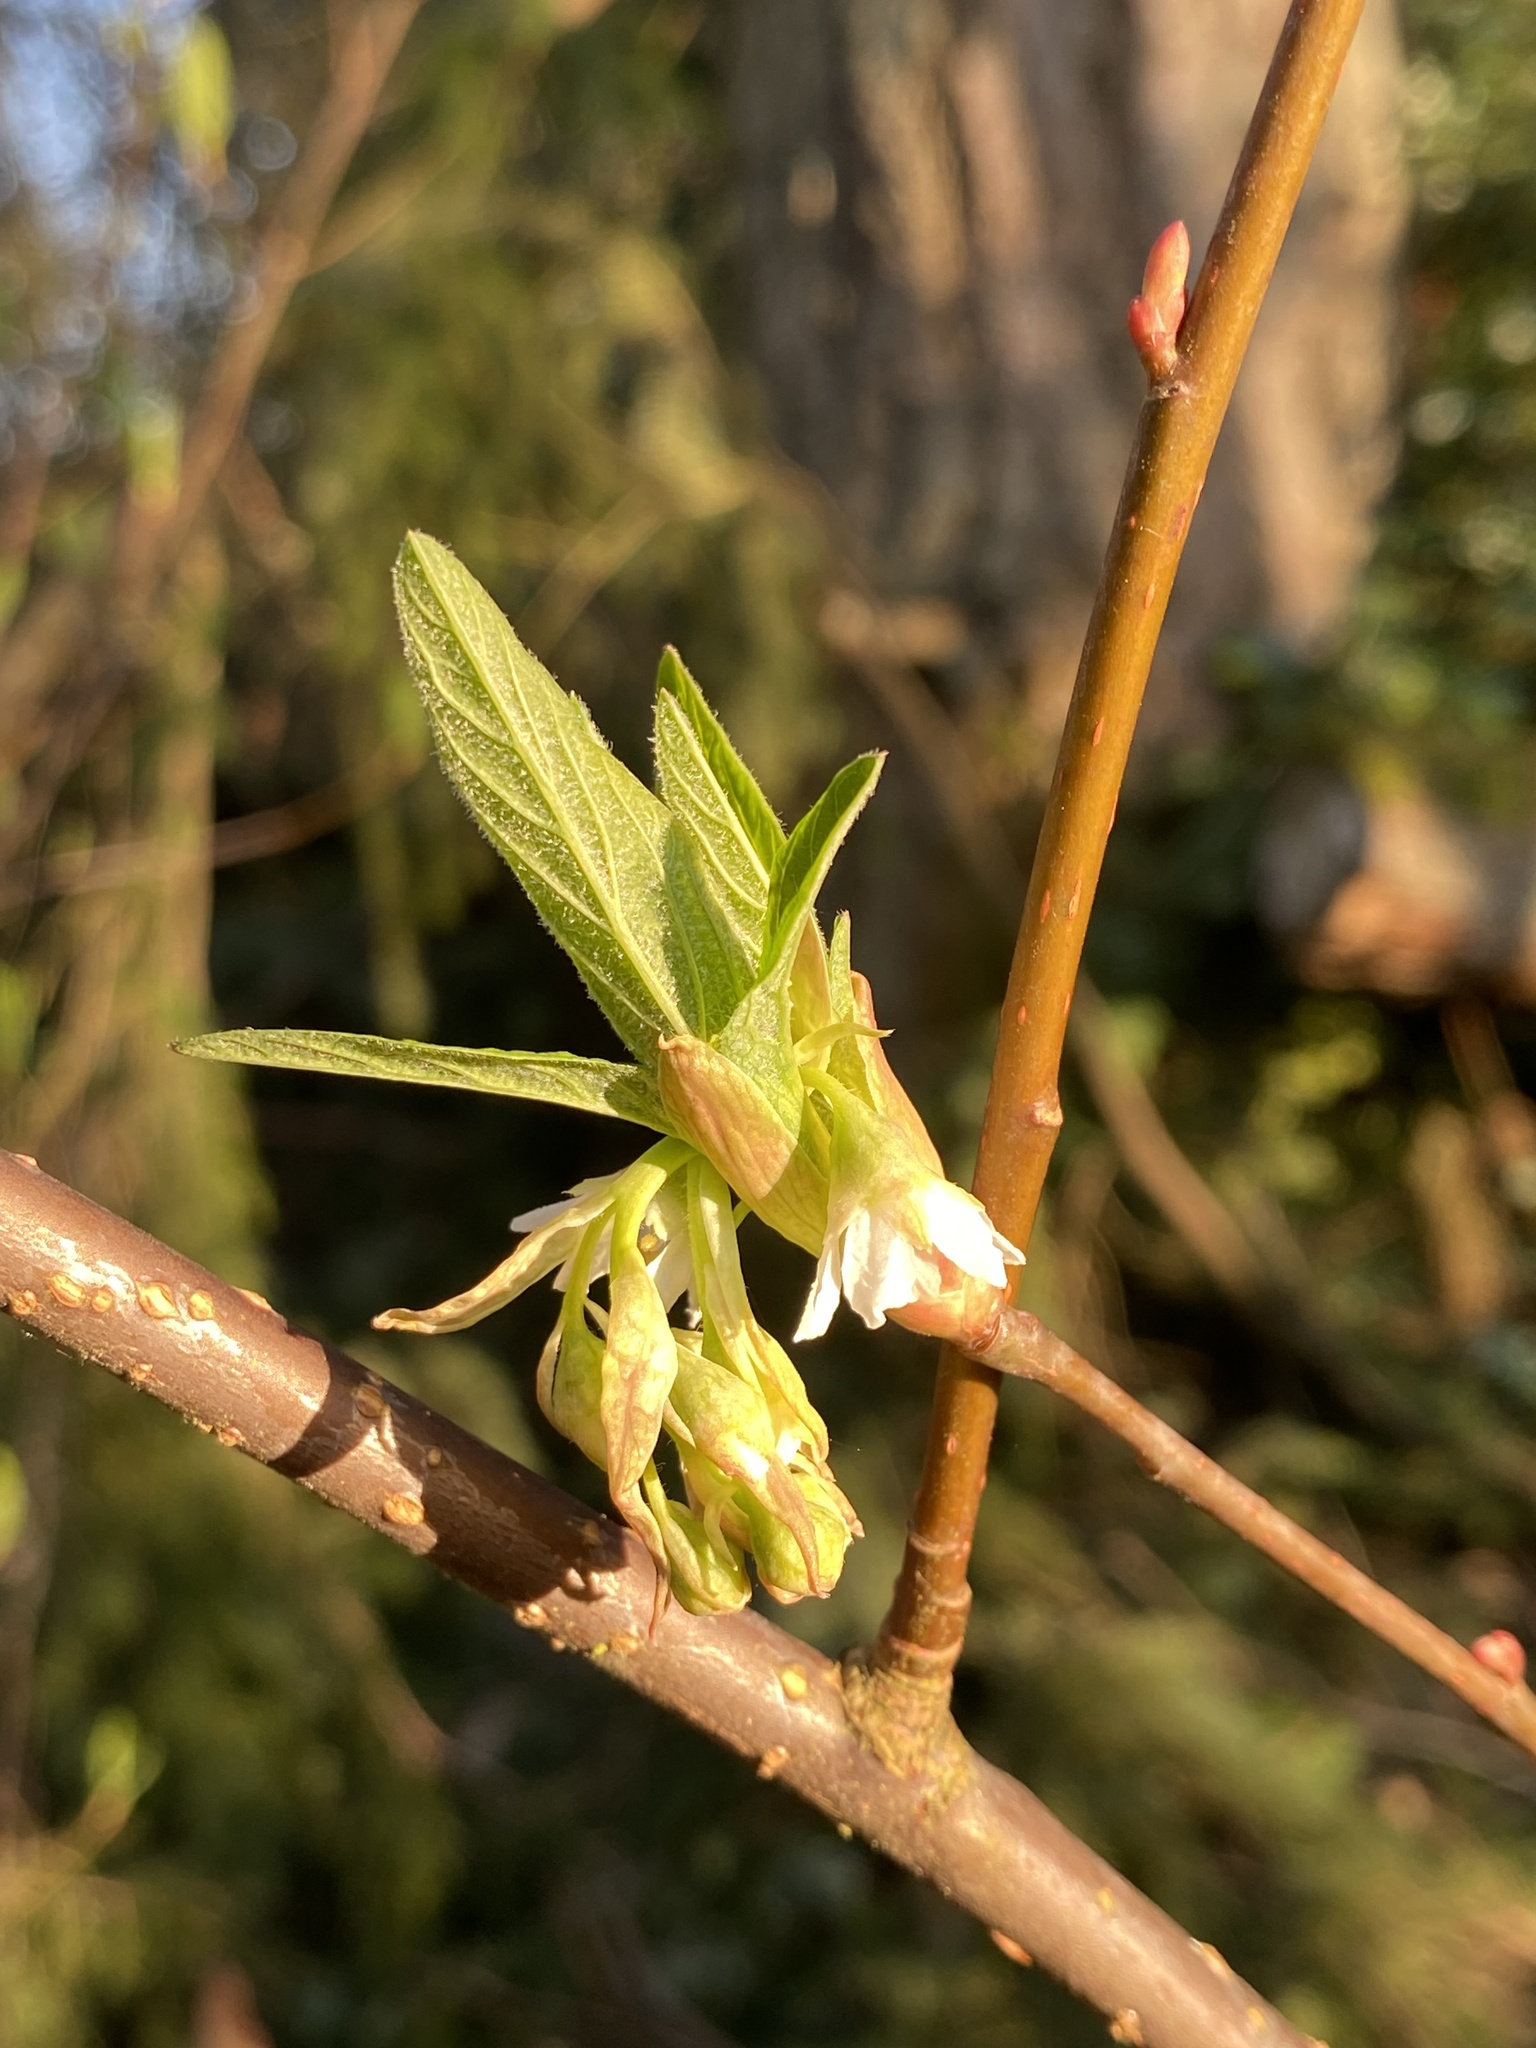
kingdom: Plantae
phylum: Tracheophyta
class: Magnoliopsida
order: Rosales
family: Rosaceae
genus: Oemleria
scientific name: Oemleria cerasiformis
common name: Osoberry
